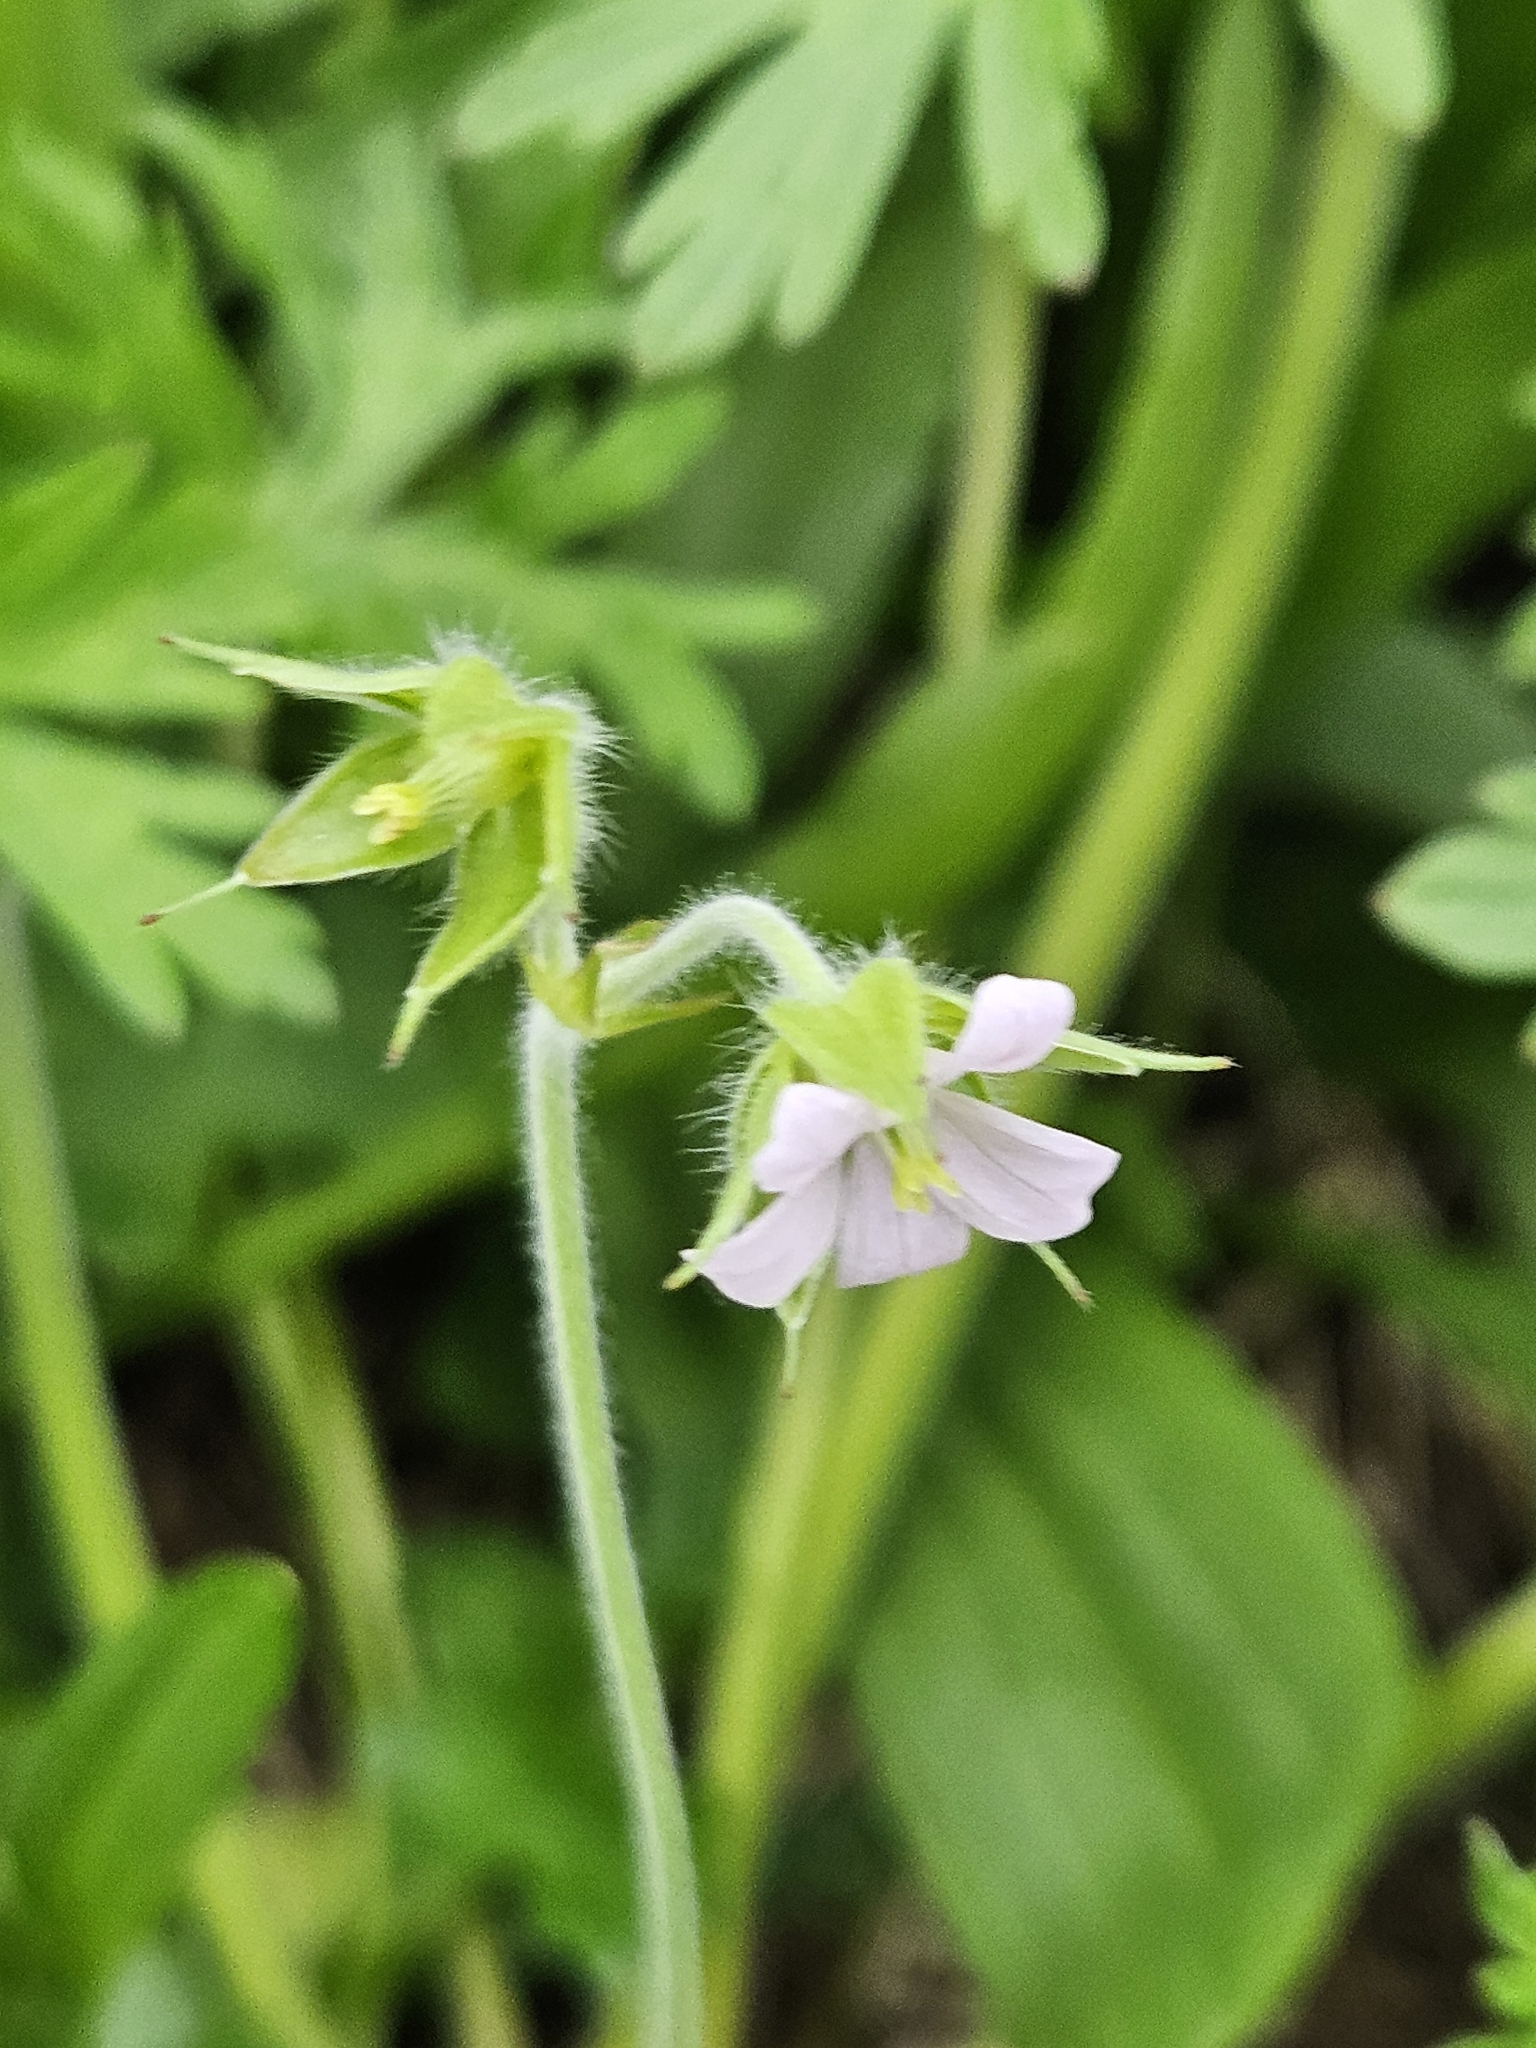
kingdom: Plantae
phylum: Tracheophyta
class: Magnoliopsida
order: Geraniales
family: Geraniaceae
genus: Geranium
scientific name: Geranium carolinianum
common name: Carolina crane's-bill
